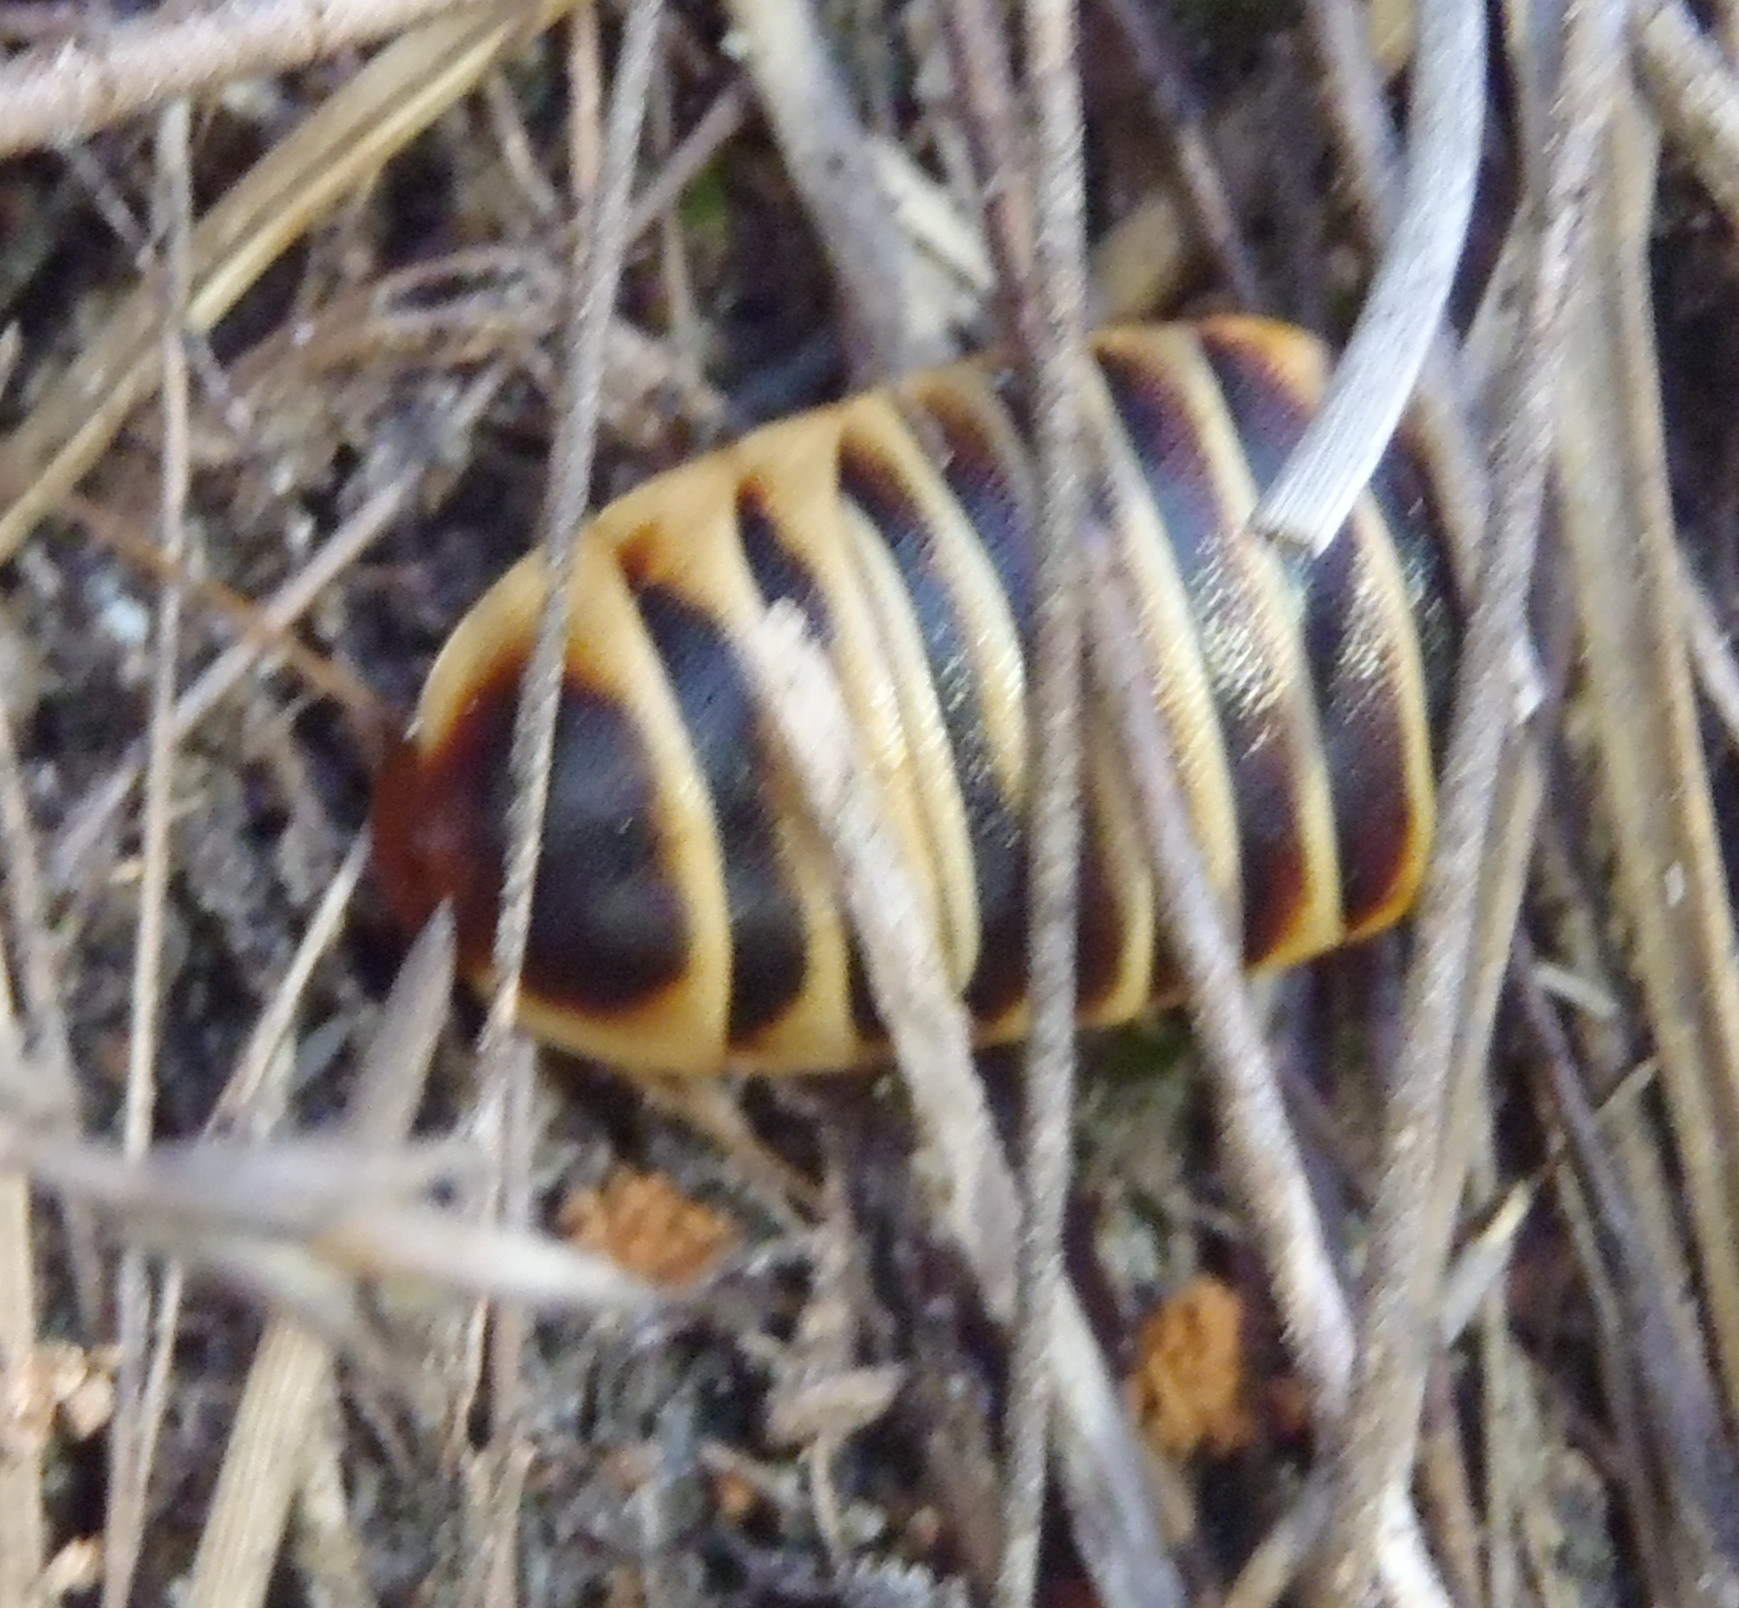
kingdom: Animalia
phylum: Arthropoda
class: Insecta
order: Blattodea
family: Blaberidae
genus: Aptera
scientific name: Aptera fusca
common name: Cape mountain cockroach
